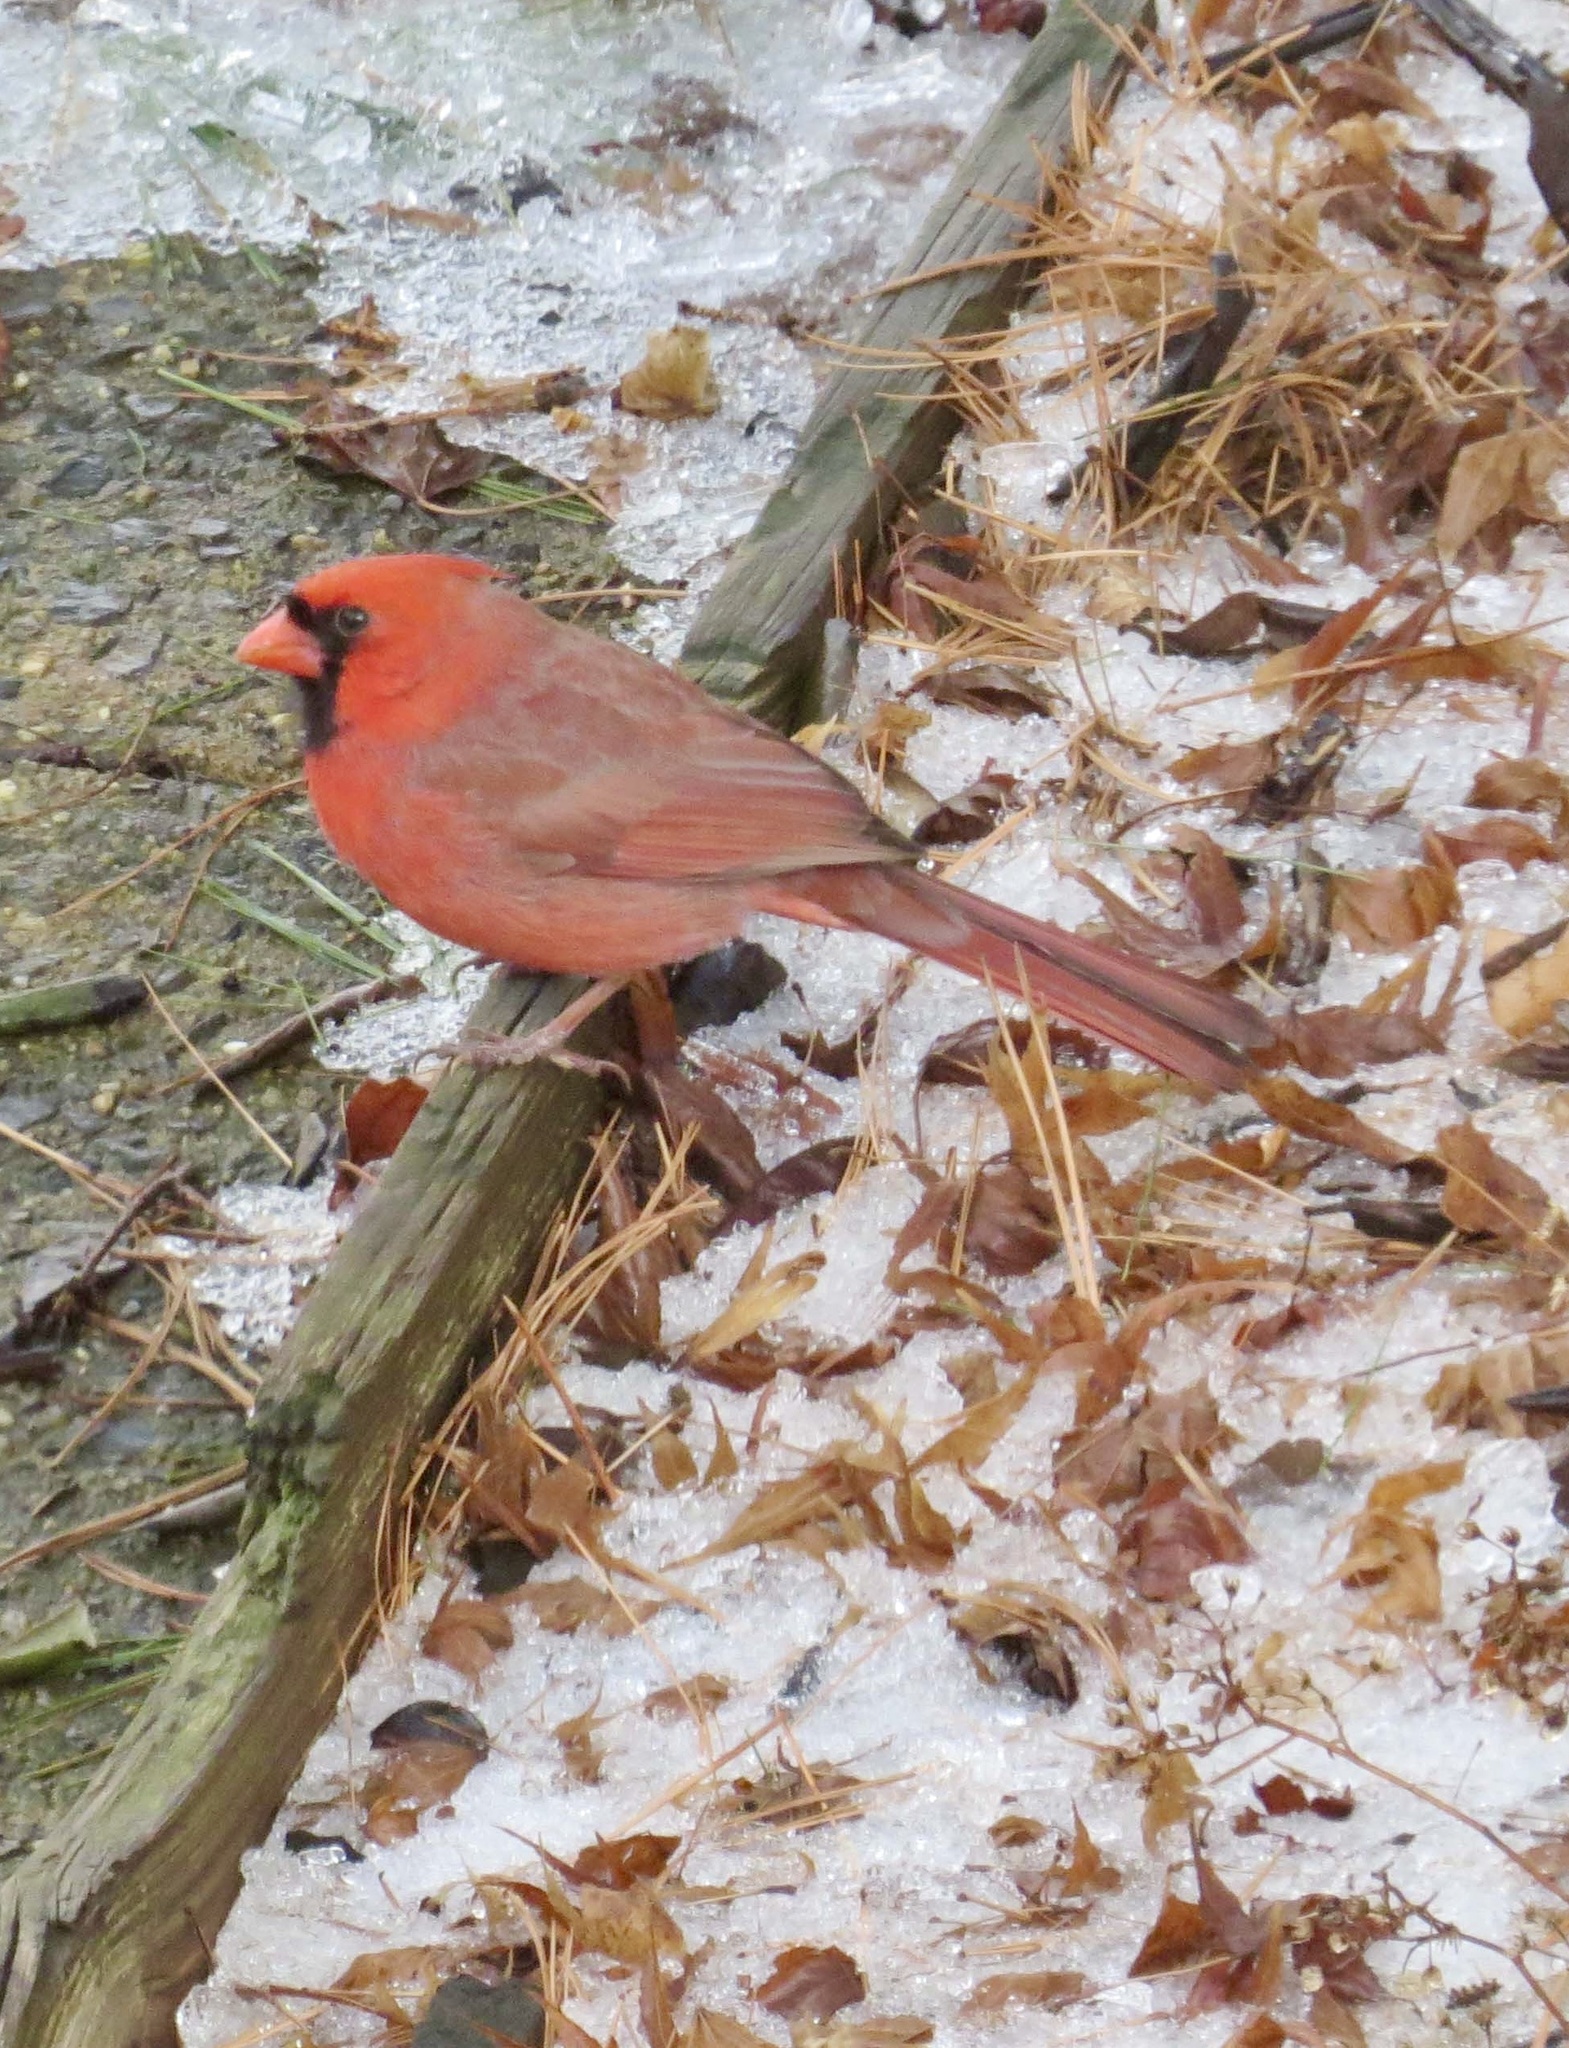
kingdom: Animalia
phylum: Chordata
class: Aves
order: Passeriformes
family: Cardinalidae
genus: Cardinalis
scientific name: Cardinalis cardinalis
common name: Northern cardinal
